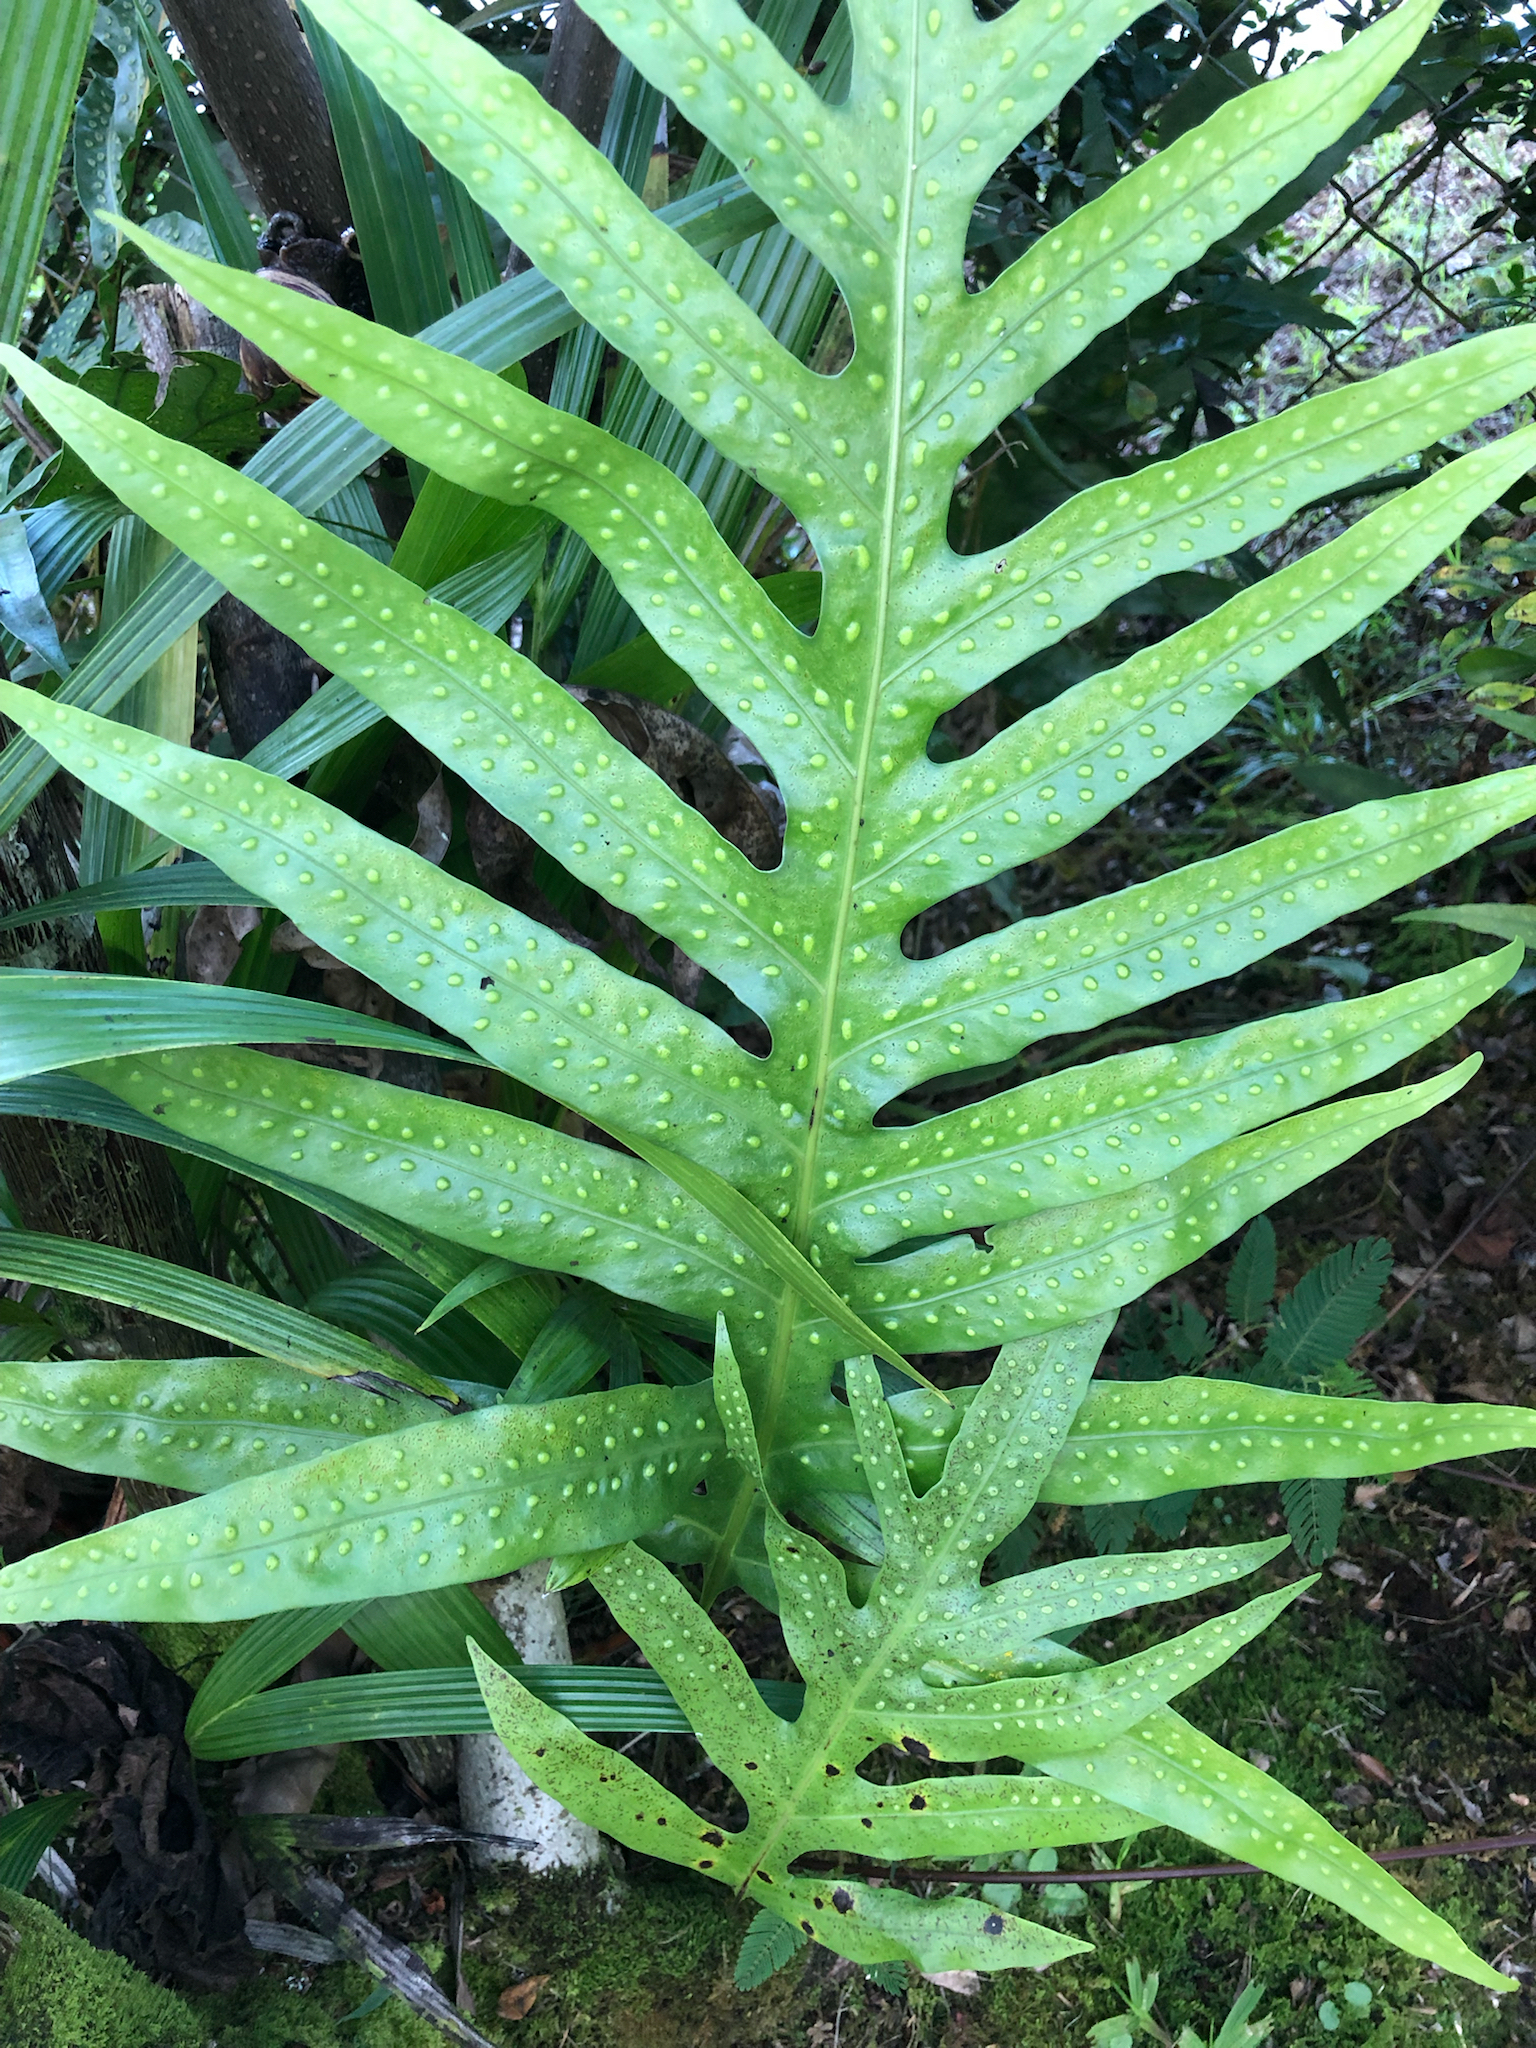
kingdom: Plantae
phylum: Tracheophyta
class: Polypodiopsida
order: Polypodiales
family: Polypodiaceae
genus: Microsorum
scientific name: Microsorum grossum
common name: Musk fern
